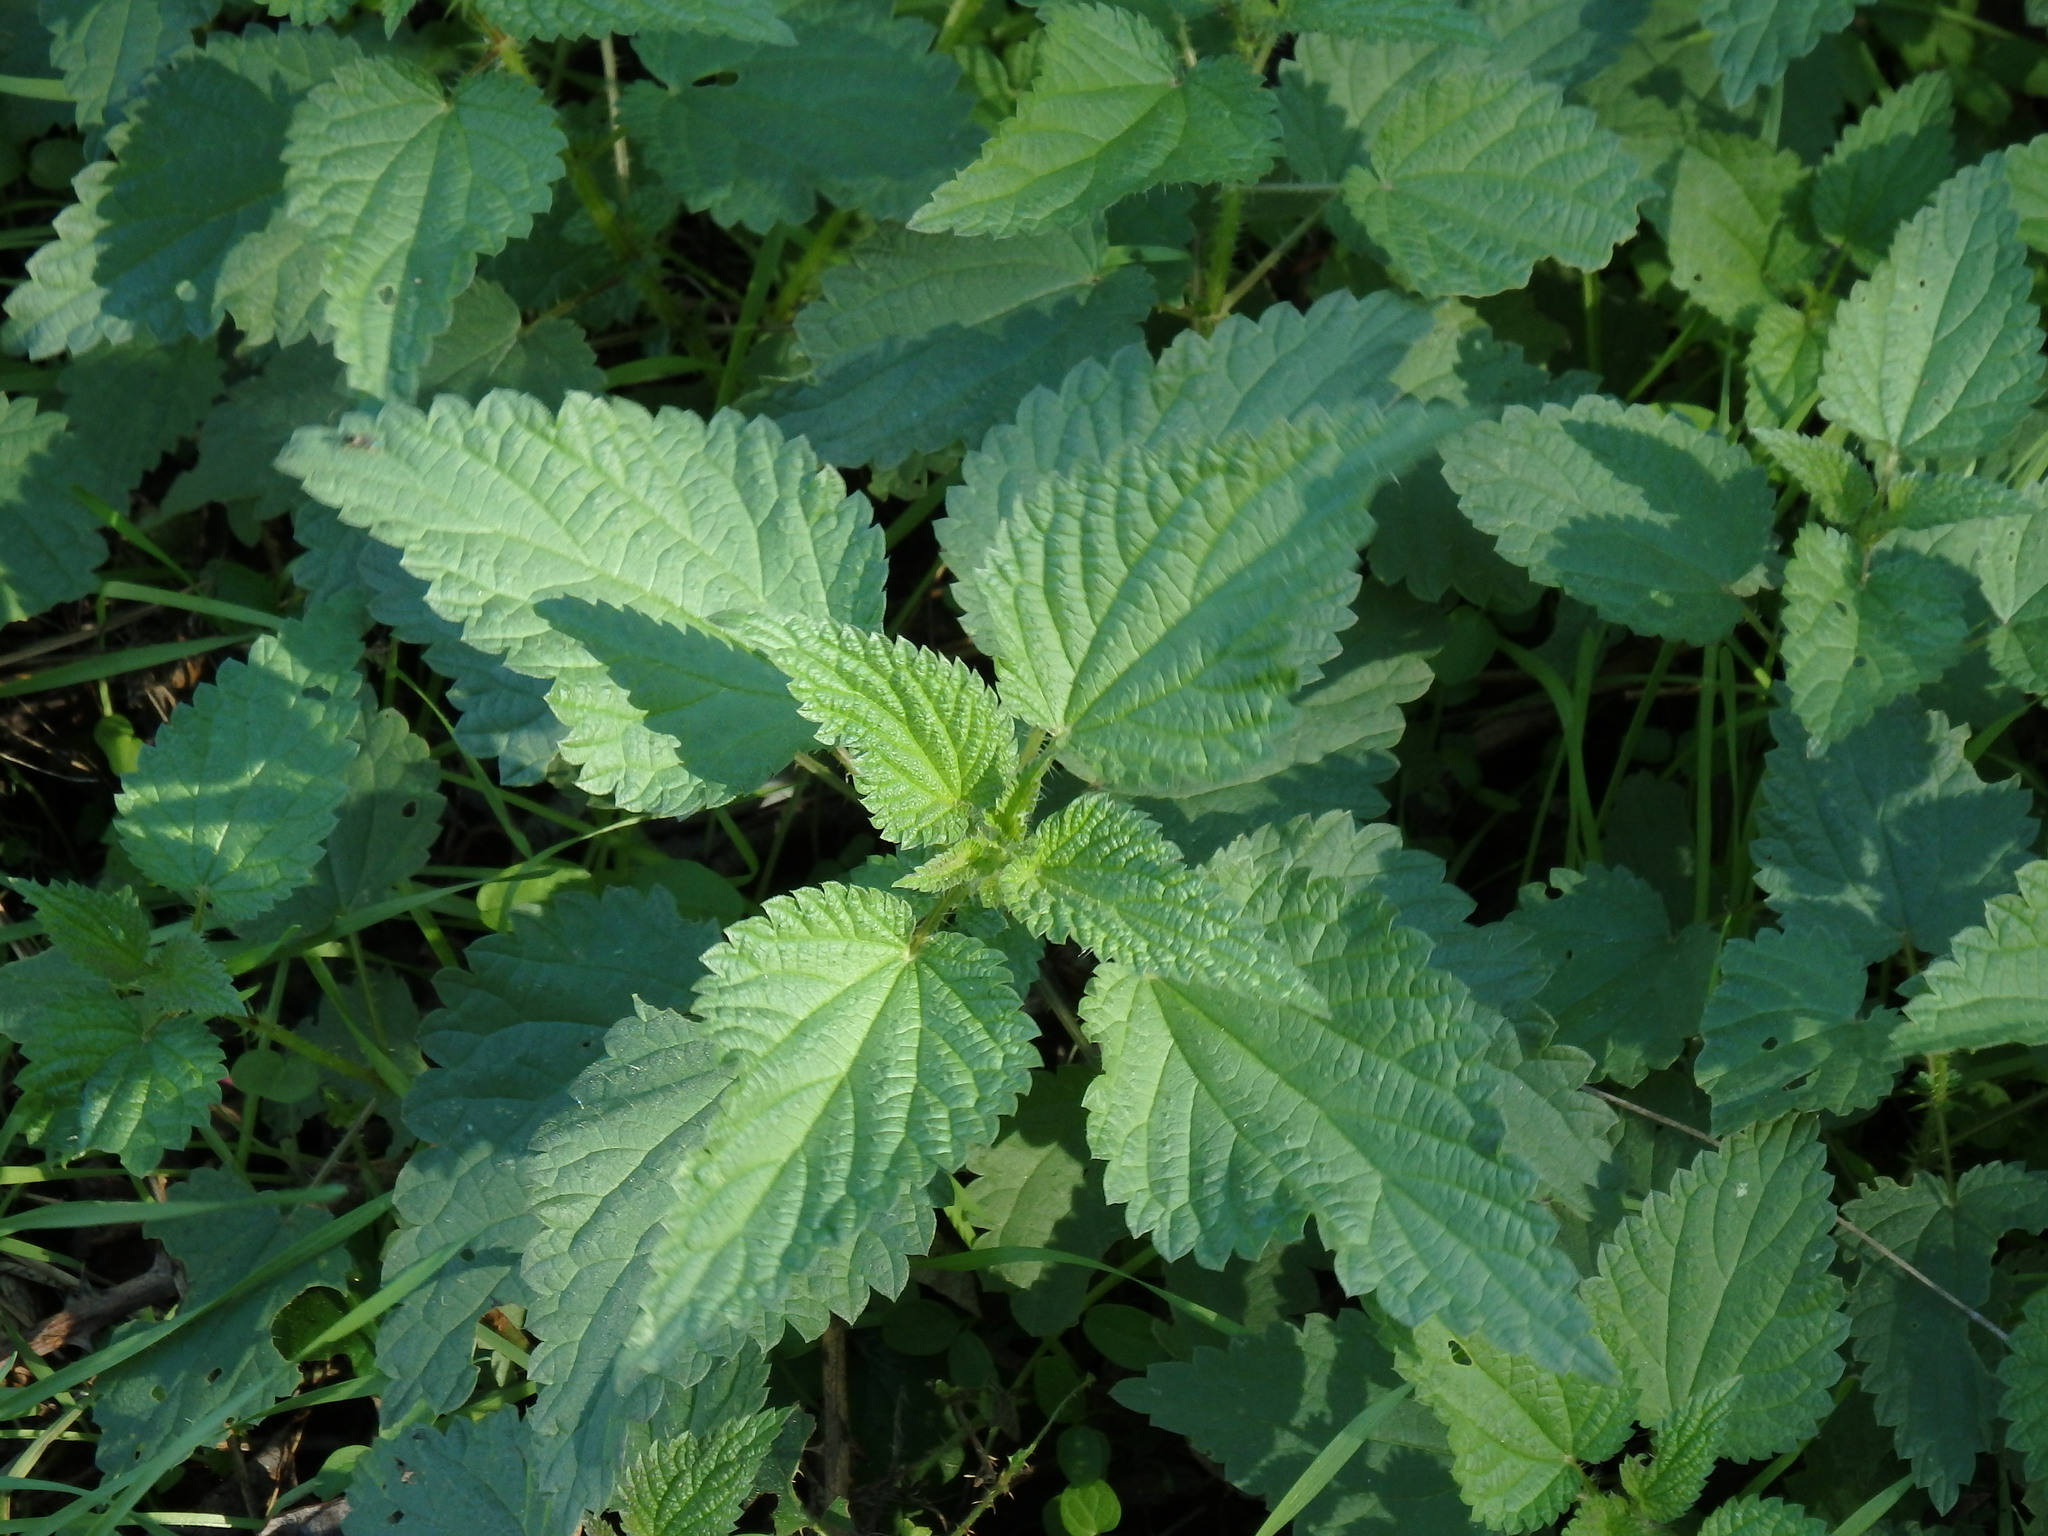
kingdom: Plantae
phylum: Tracheophyta
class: Magnoliopsida
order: Rosales
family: Urticaceae
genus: Urtica
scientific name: Urtica dioica
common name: Common nettle
